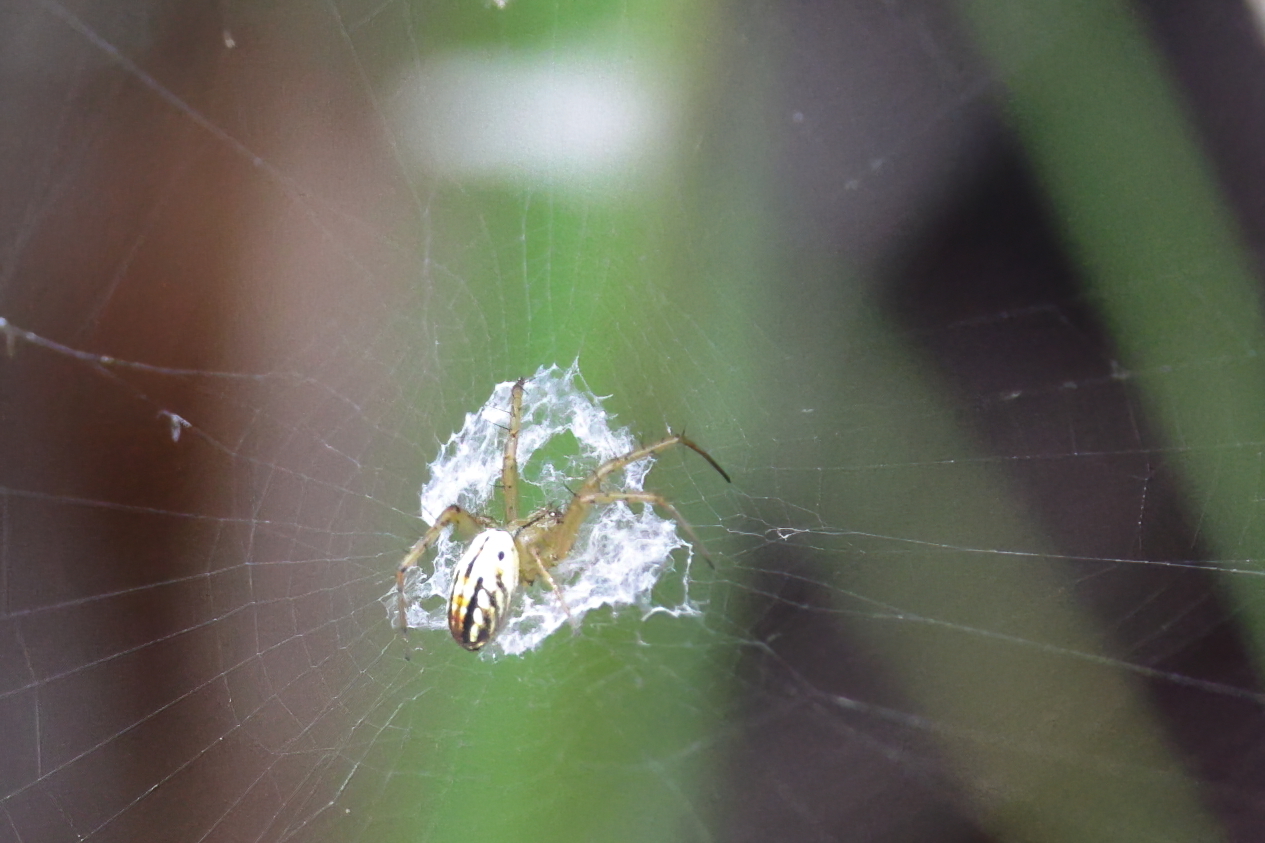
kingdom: Animalia
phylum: Arthropoda
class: Arachnida
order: Araneae
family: Araneidae
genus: Mangora
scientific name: Mangora gibberosa
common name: Lined orbweaver
